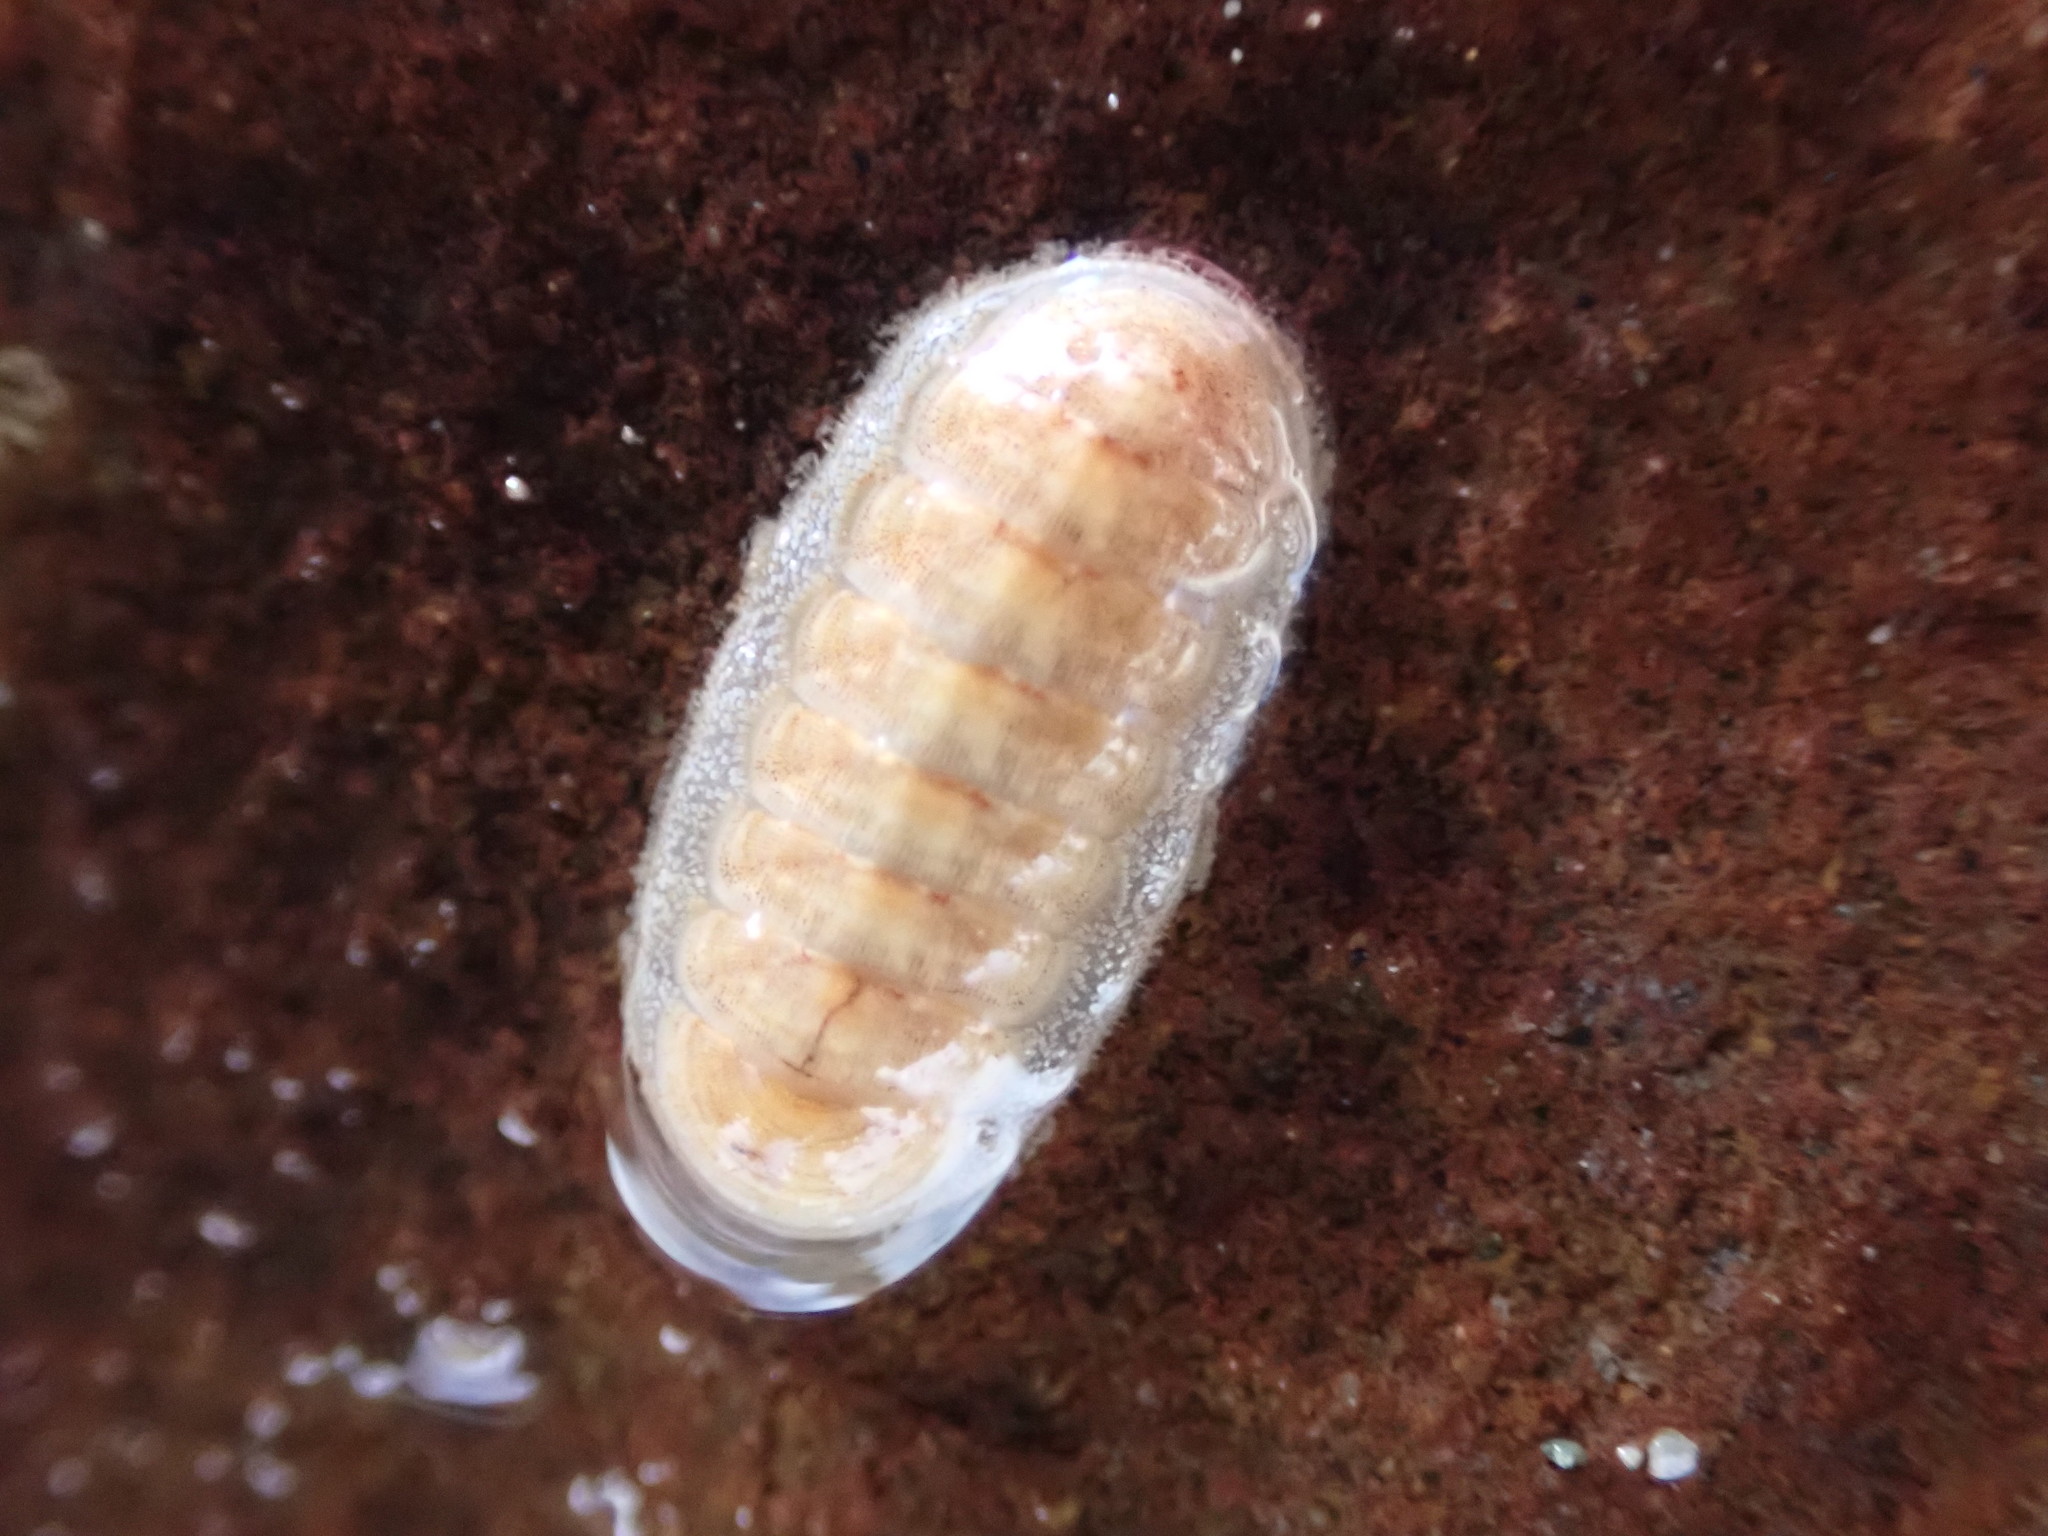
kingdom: Animalia
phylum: Mollusca
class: Polyplacophora
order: Lepidopleurida
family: Leptochitonidae
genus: Leptochiton
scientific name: Leptochiton inquinatus
